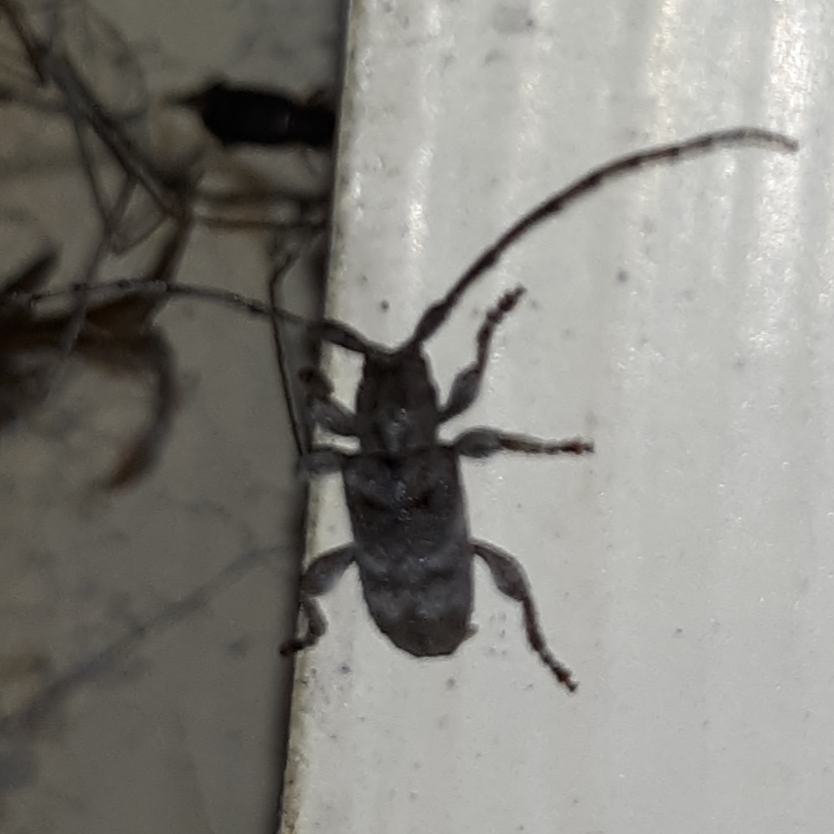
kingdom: Animalia
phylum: Arthropoda
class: Insecta
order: Coleoptera
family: Cerambycidae
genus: Ecyrus
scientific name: Ecyrus dasycerus
